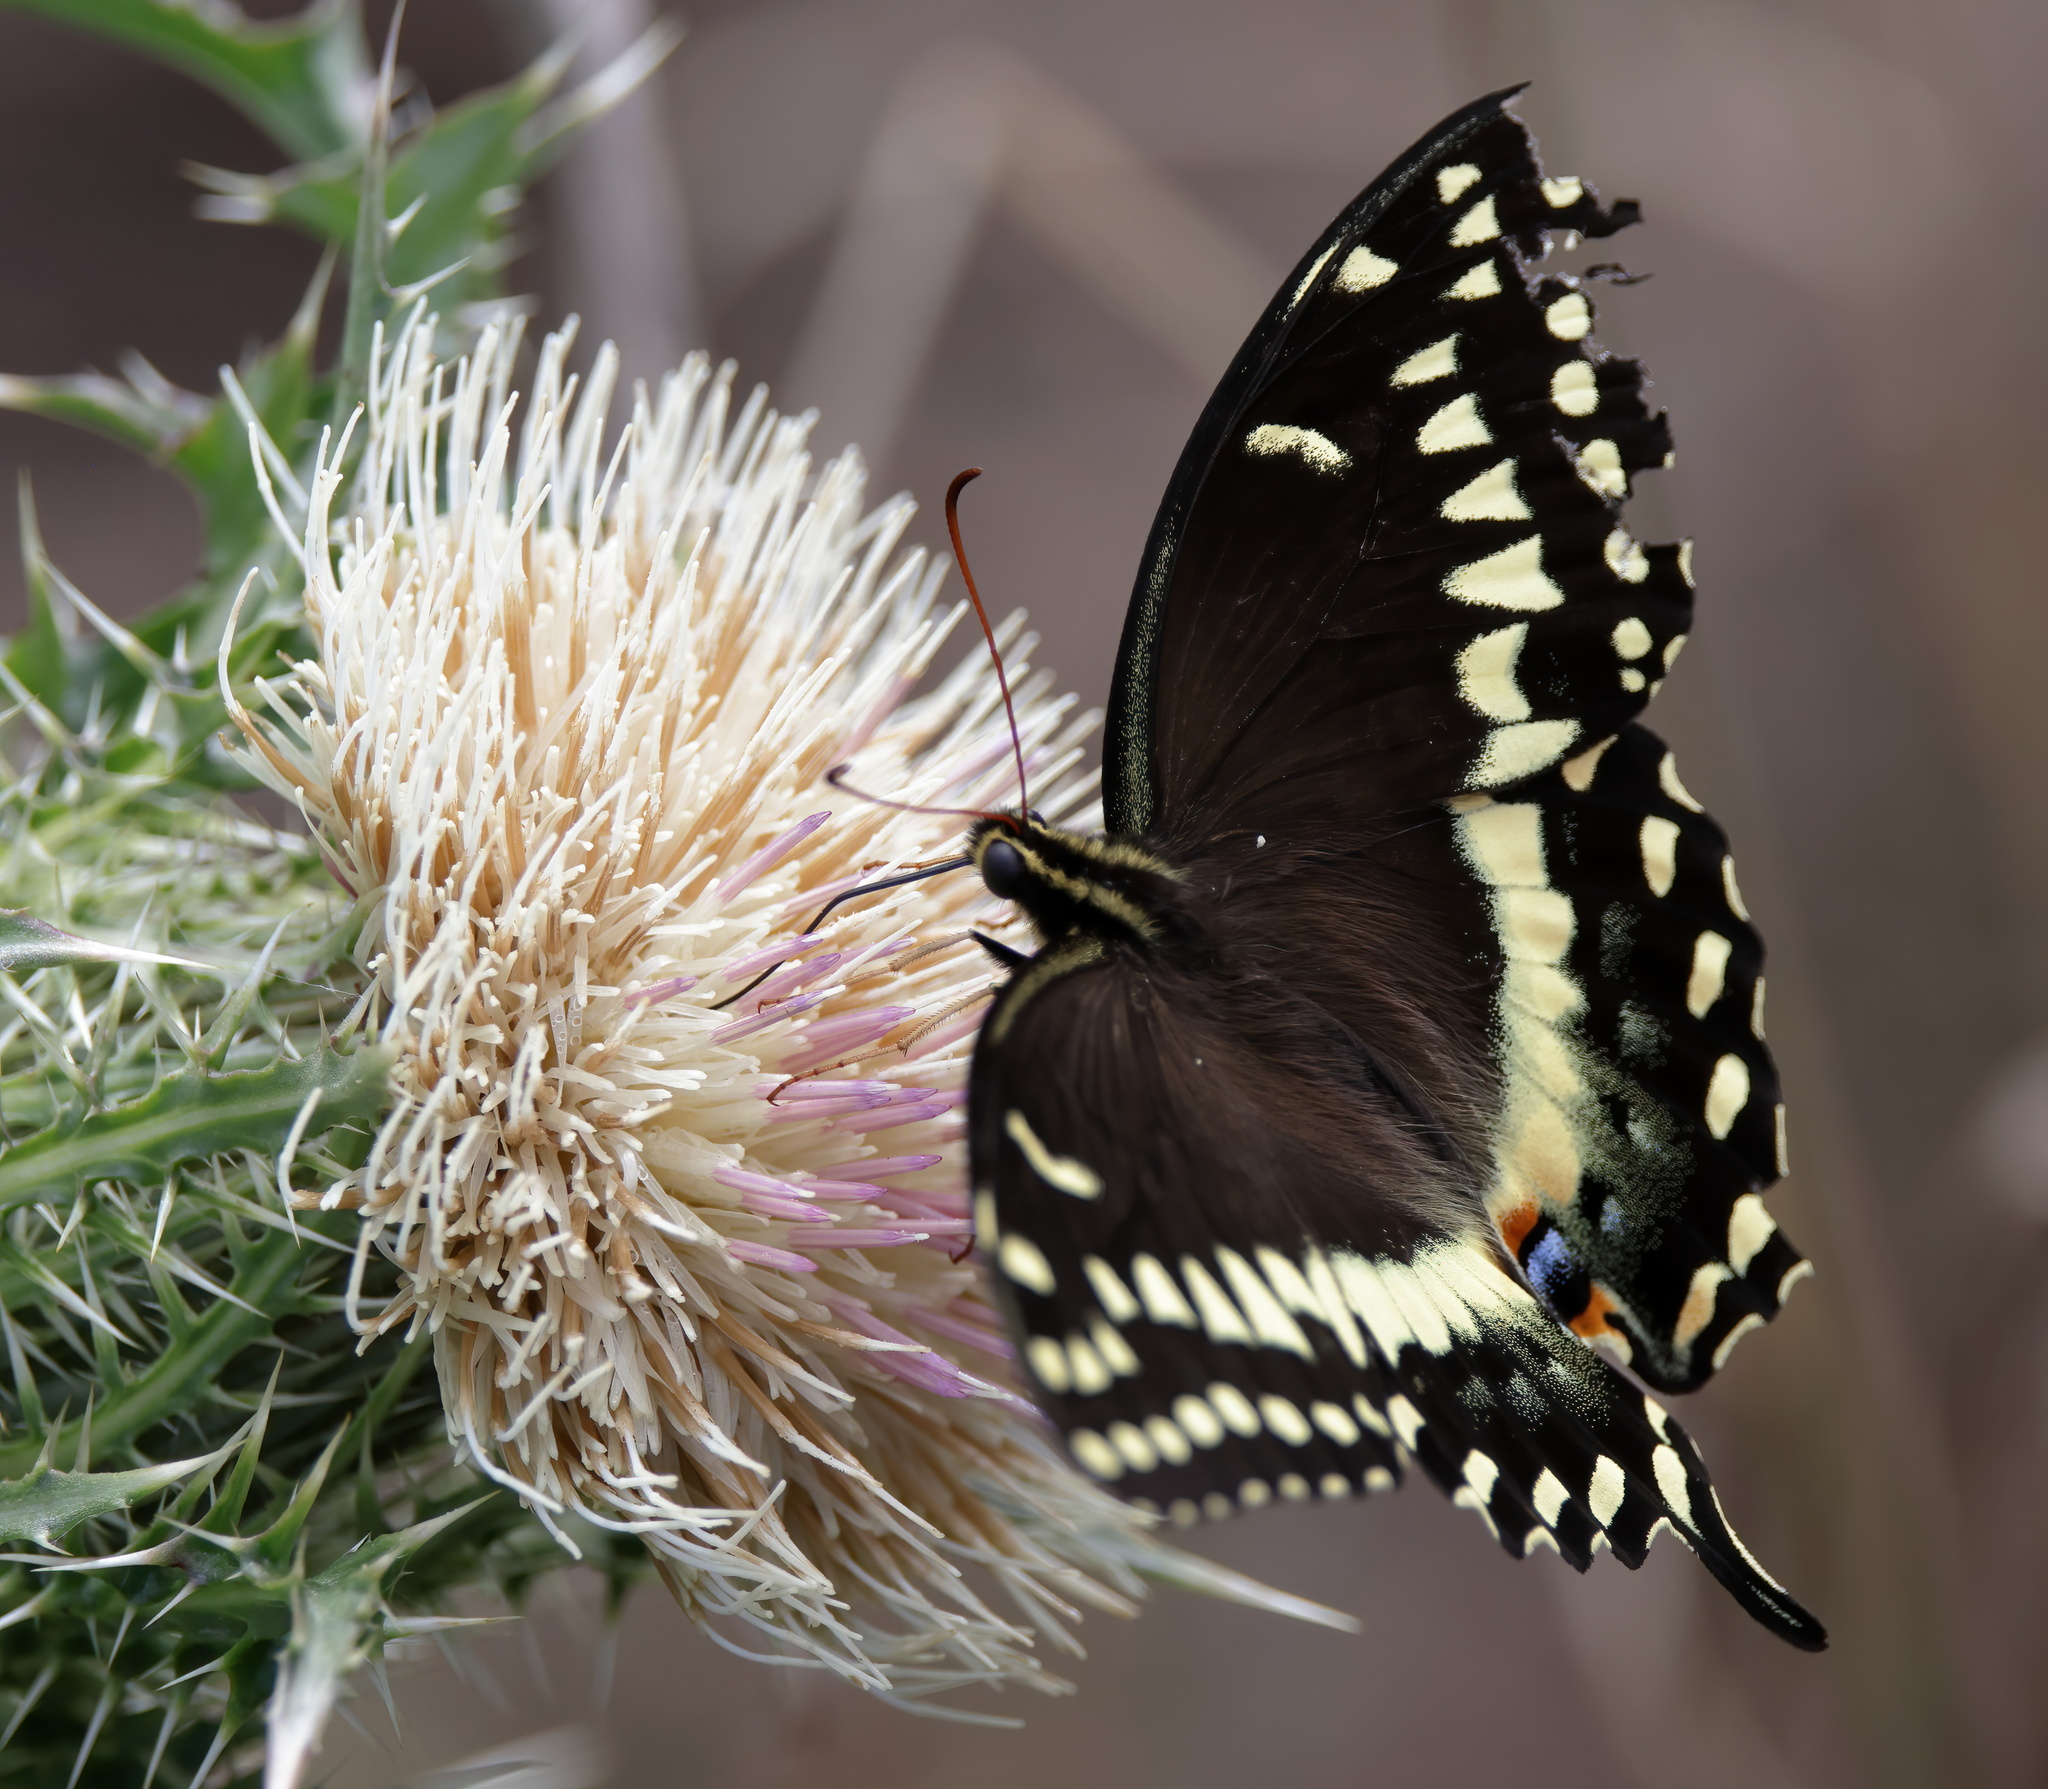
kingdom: Animalia
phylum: Arthropoda
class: Insecta
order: Lepidoptera
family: Papilionidae
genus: Papilio
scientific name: Papilio palamedes
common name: Palamedes swallowtail
